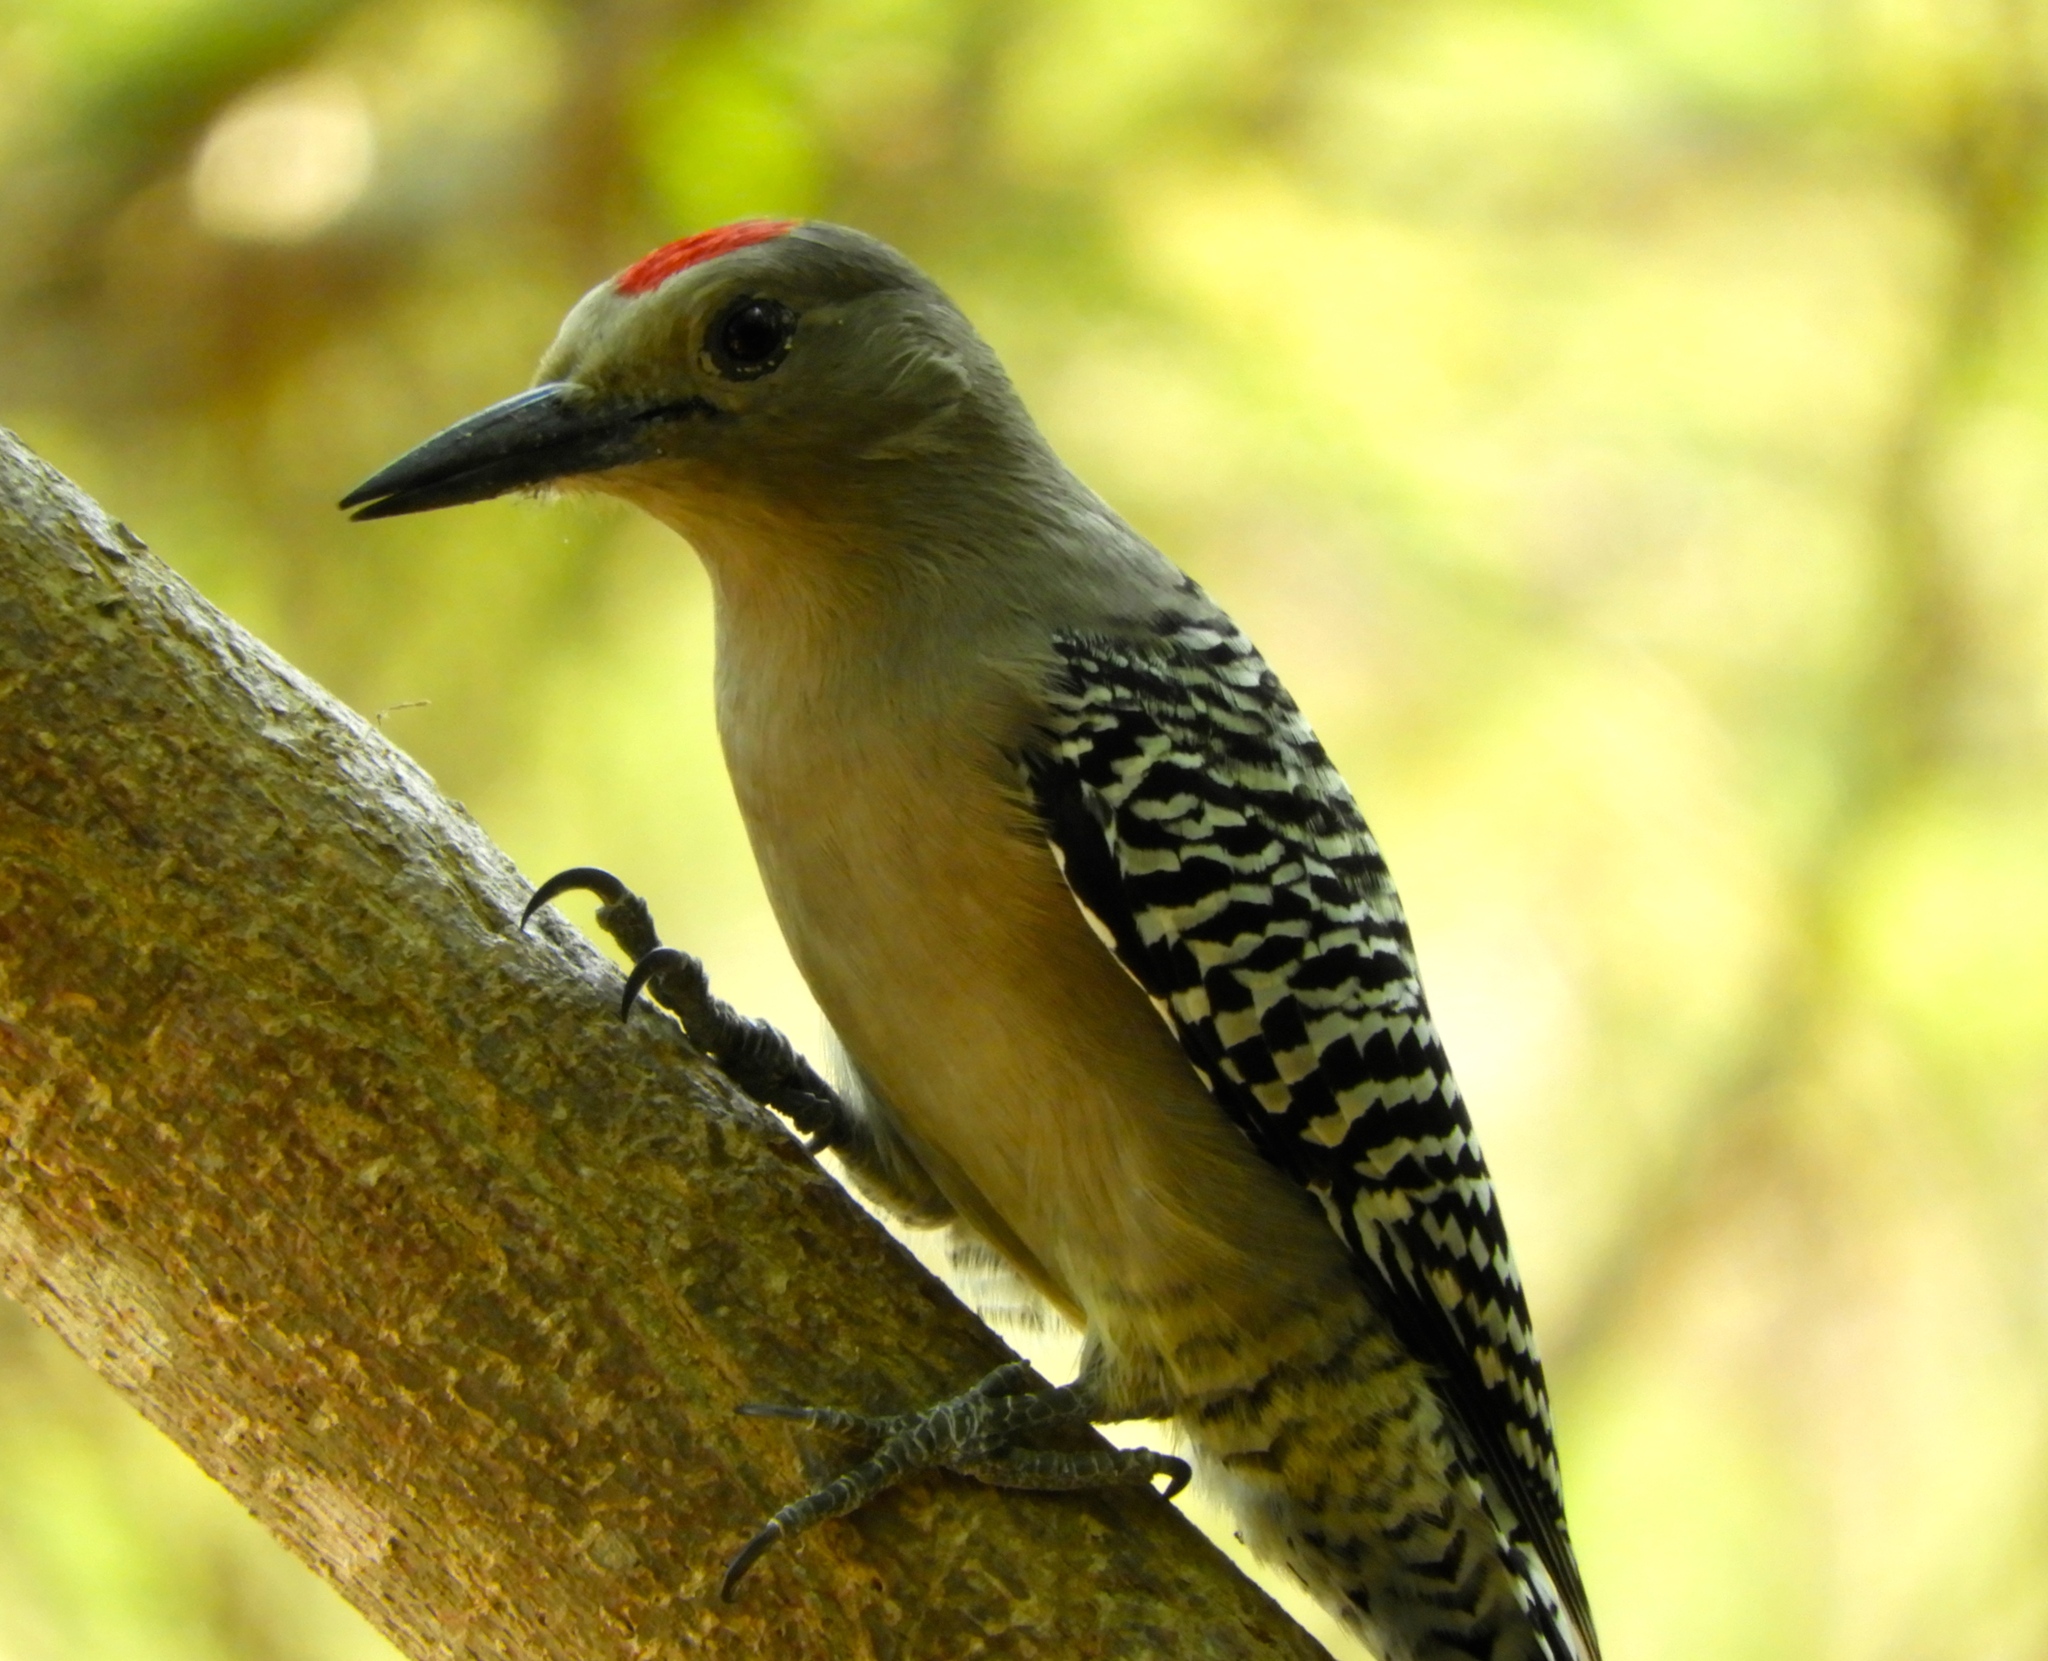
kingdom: Animalia
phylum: Chordata
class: Aves
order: Piciformes
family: Picidae
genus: Melanerpes
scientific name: Melanerpes uropygialis
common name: Gila woodpecker
